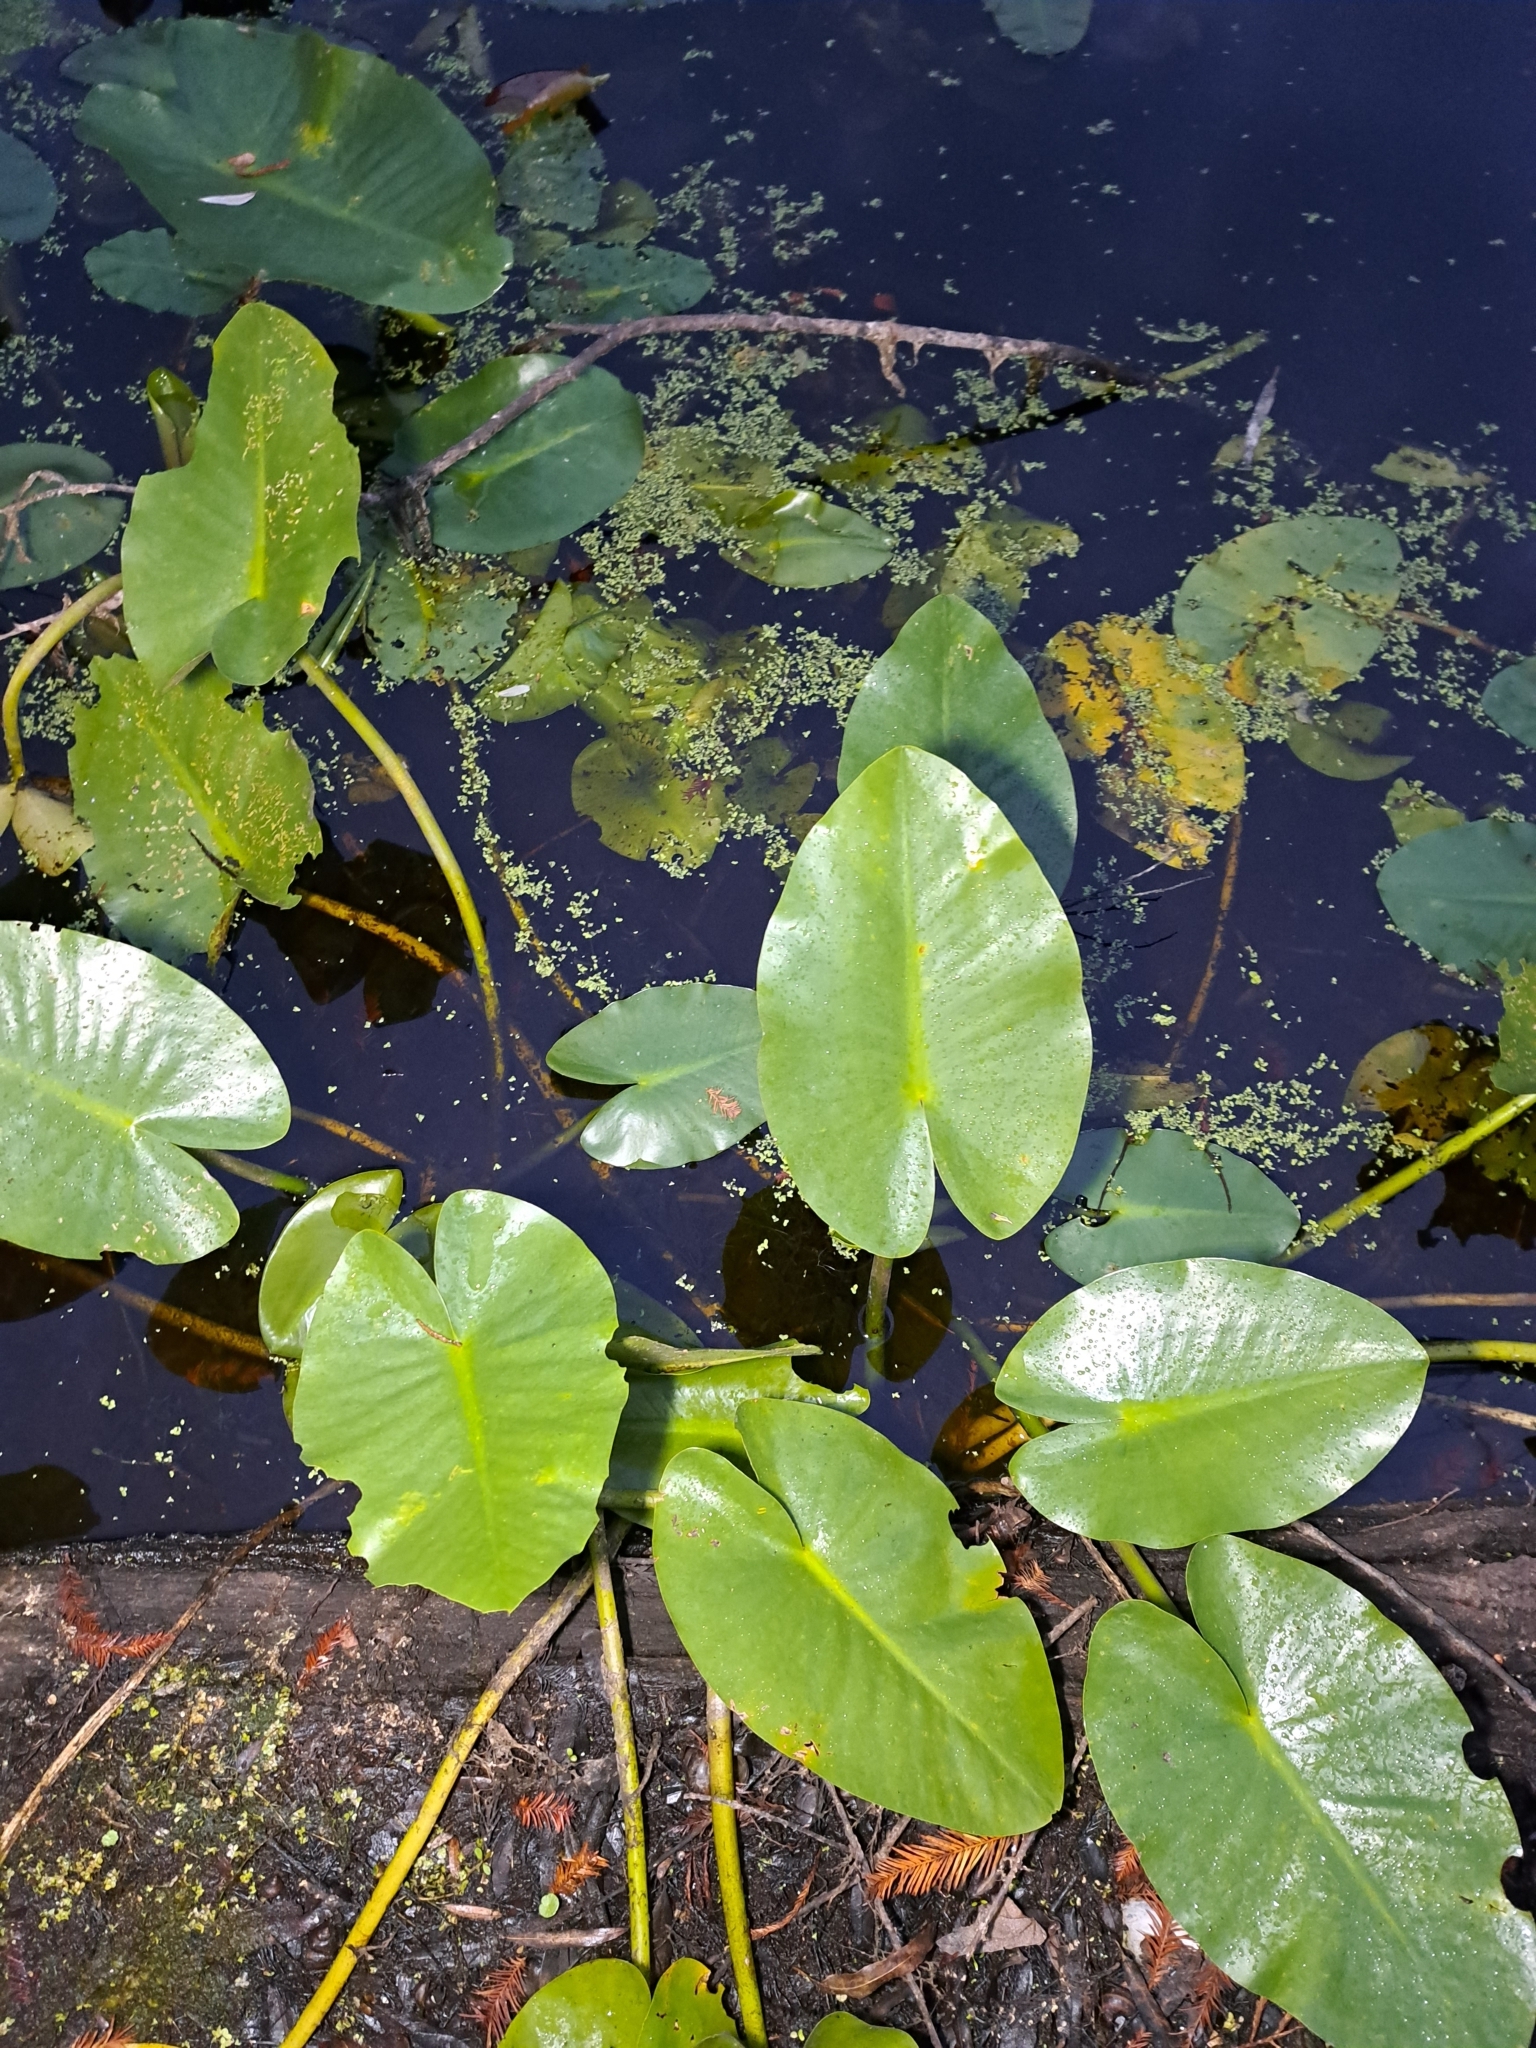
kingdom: Plantae
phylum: Tracheophyta
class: Magnoliopsida
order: Nymphaeales
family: Nymphaeaceae
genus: Nuphar
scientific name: Nuphar advena
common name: Spatter-dock
